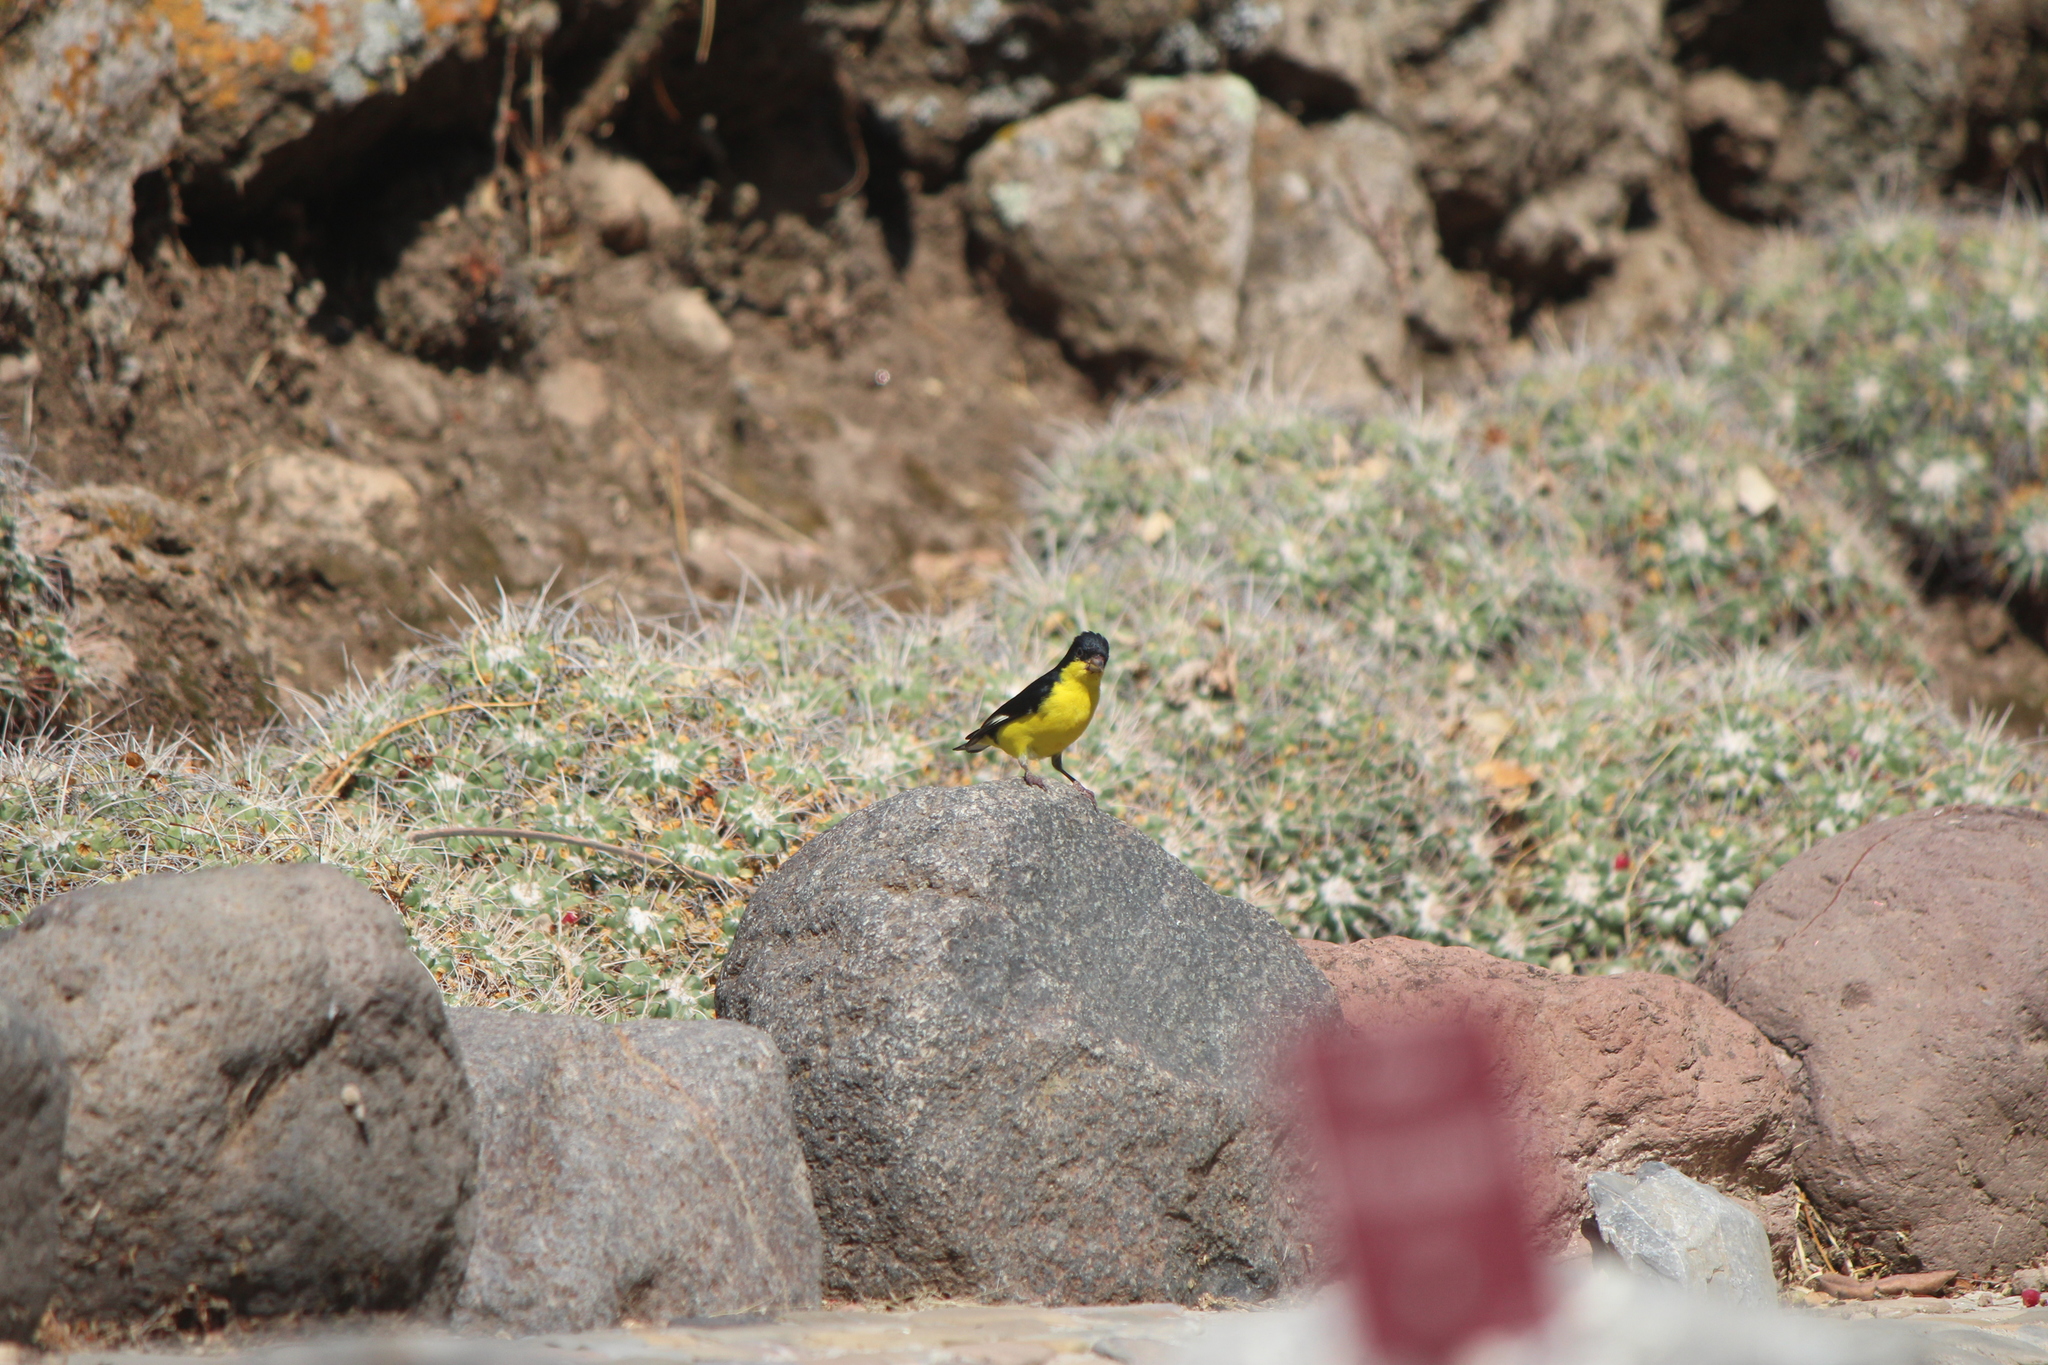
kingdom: Animalia
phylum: Chordata
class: Aves
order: Passeriformes
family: Fringillidae
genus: Spinus
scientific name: Spinus psaltria
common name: Lesser goldfinch
